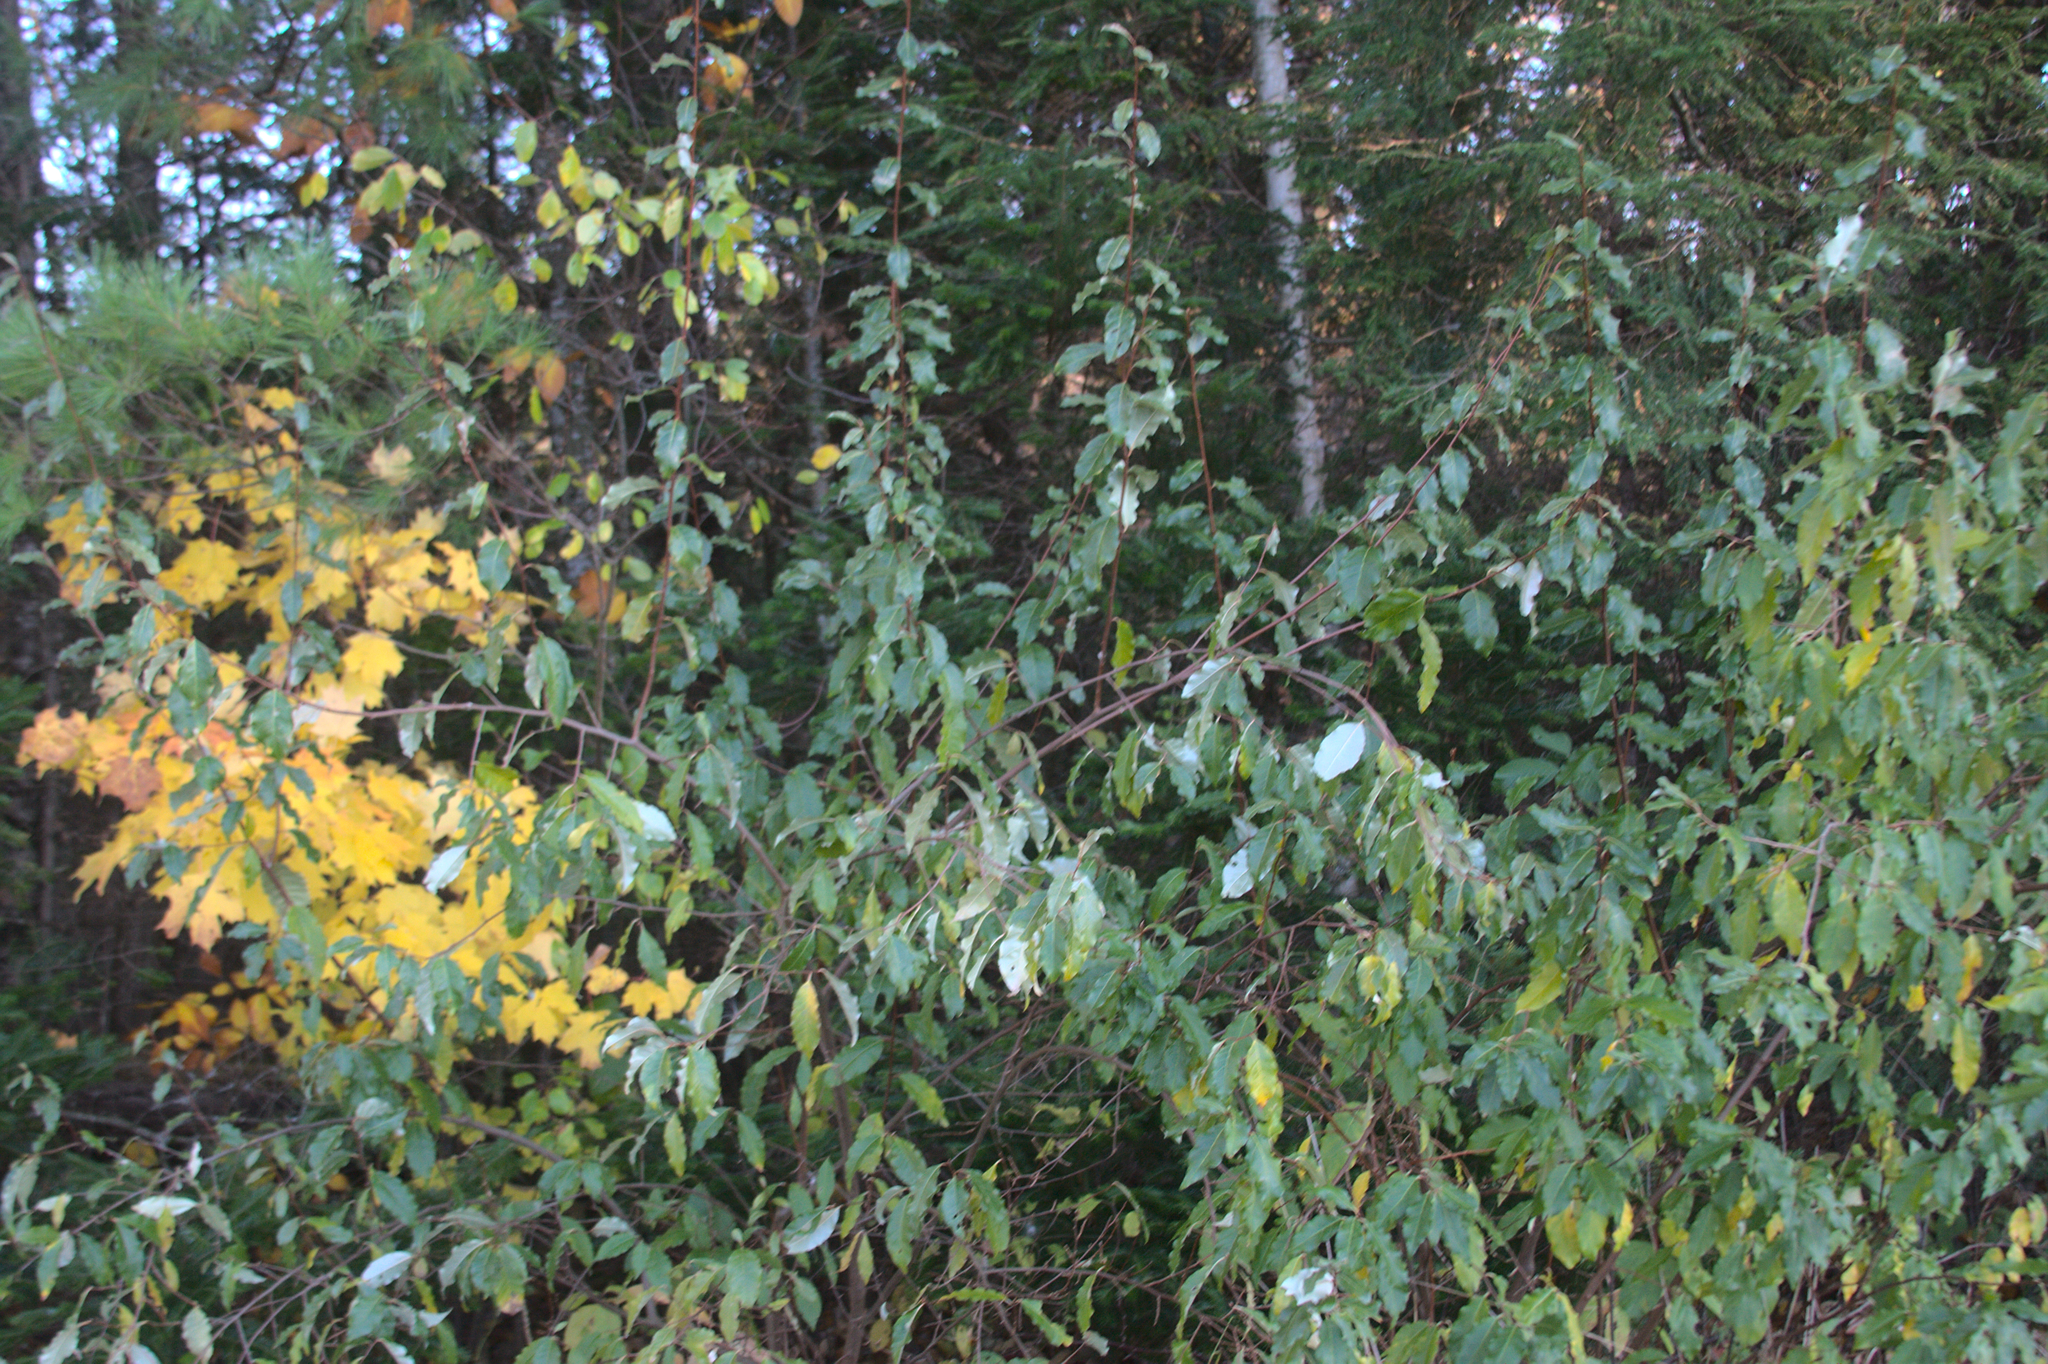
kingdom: Plantae
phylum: Tracheophyta
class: Magnoliopsida
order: Rosales
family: Elaeagnaceae
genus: Elaeagnus
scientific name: Elaeagnus umbellata
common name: Autumn olive
